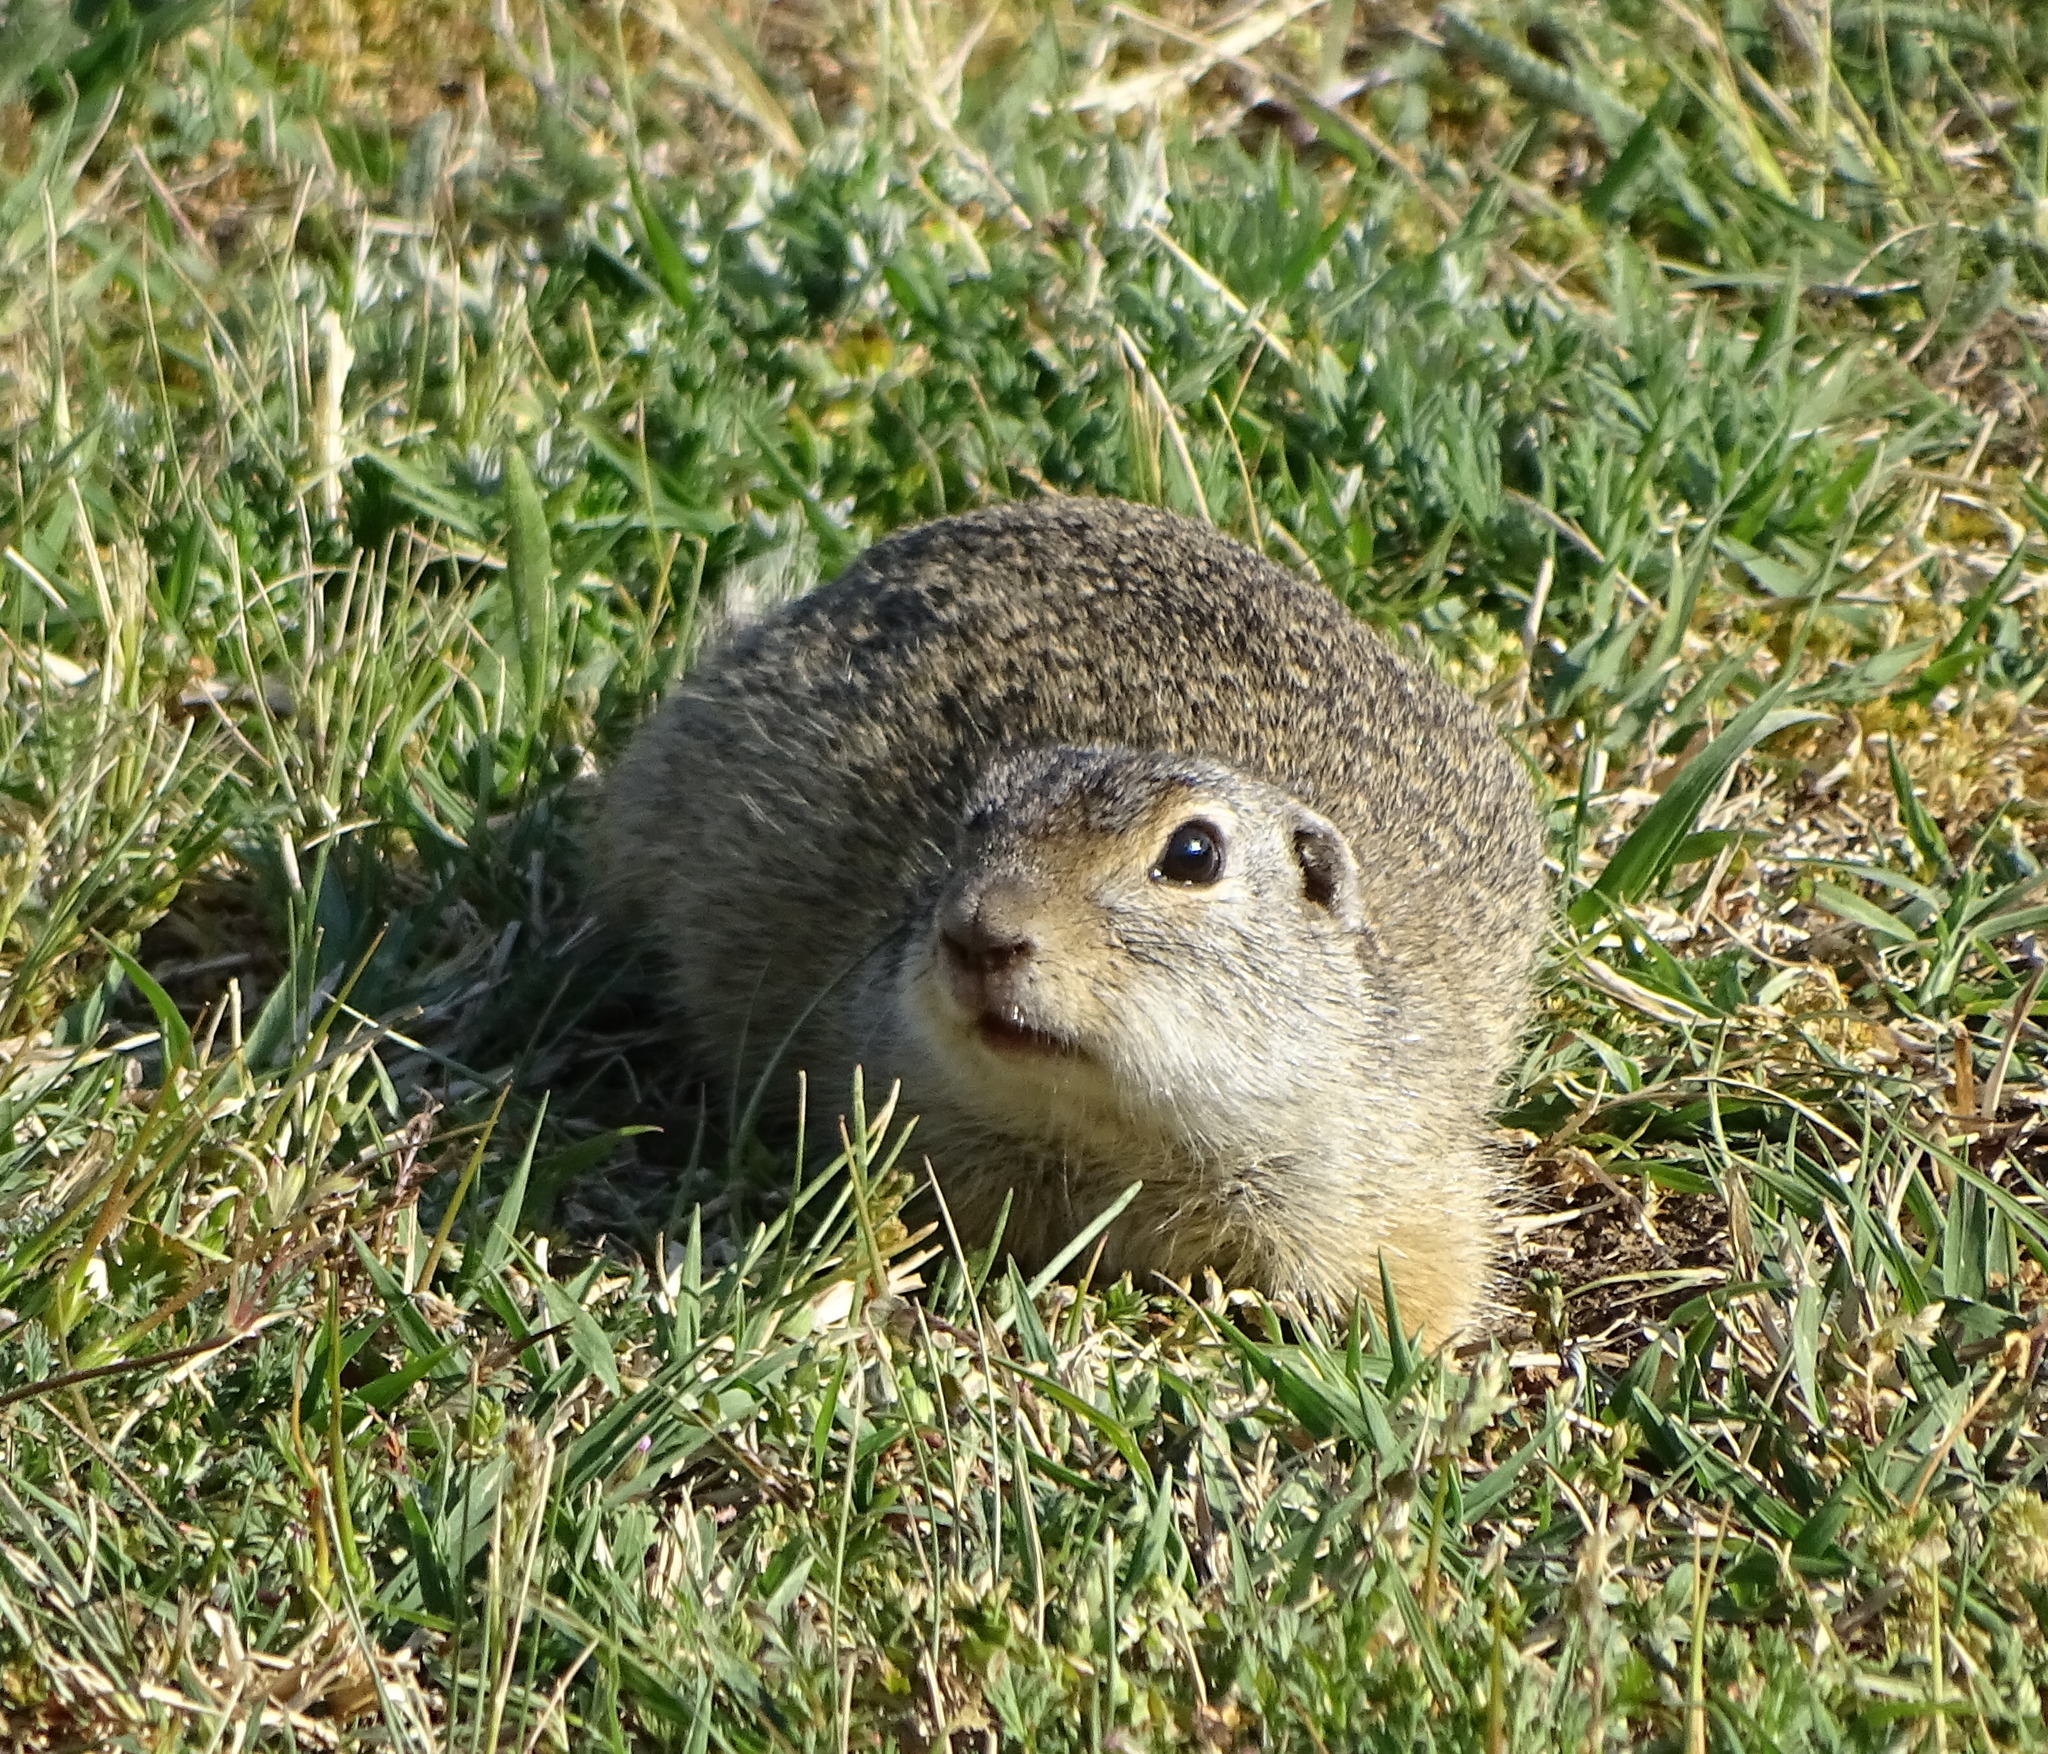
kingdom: Animalia
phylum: Chordata
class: Mammalia
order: Rodentia
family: Sciuridae
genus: Spermophilus
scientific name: Spermophilus citellus
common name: European ground squirrel
